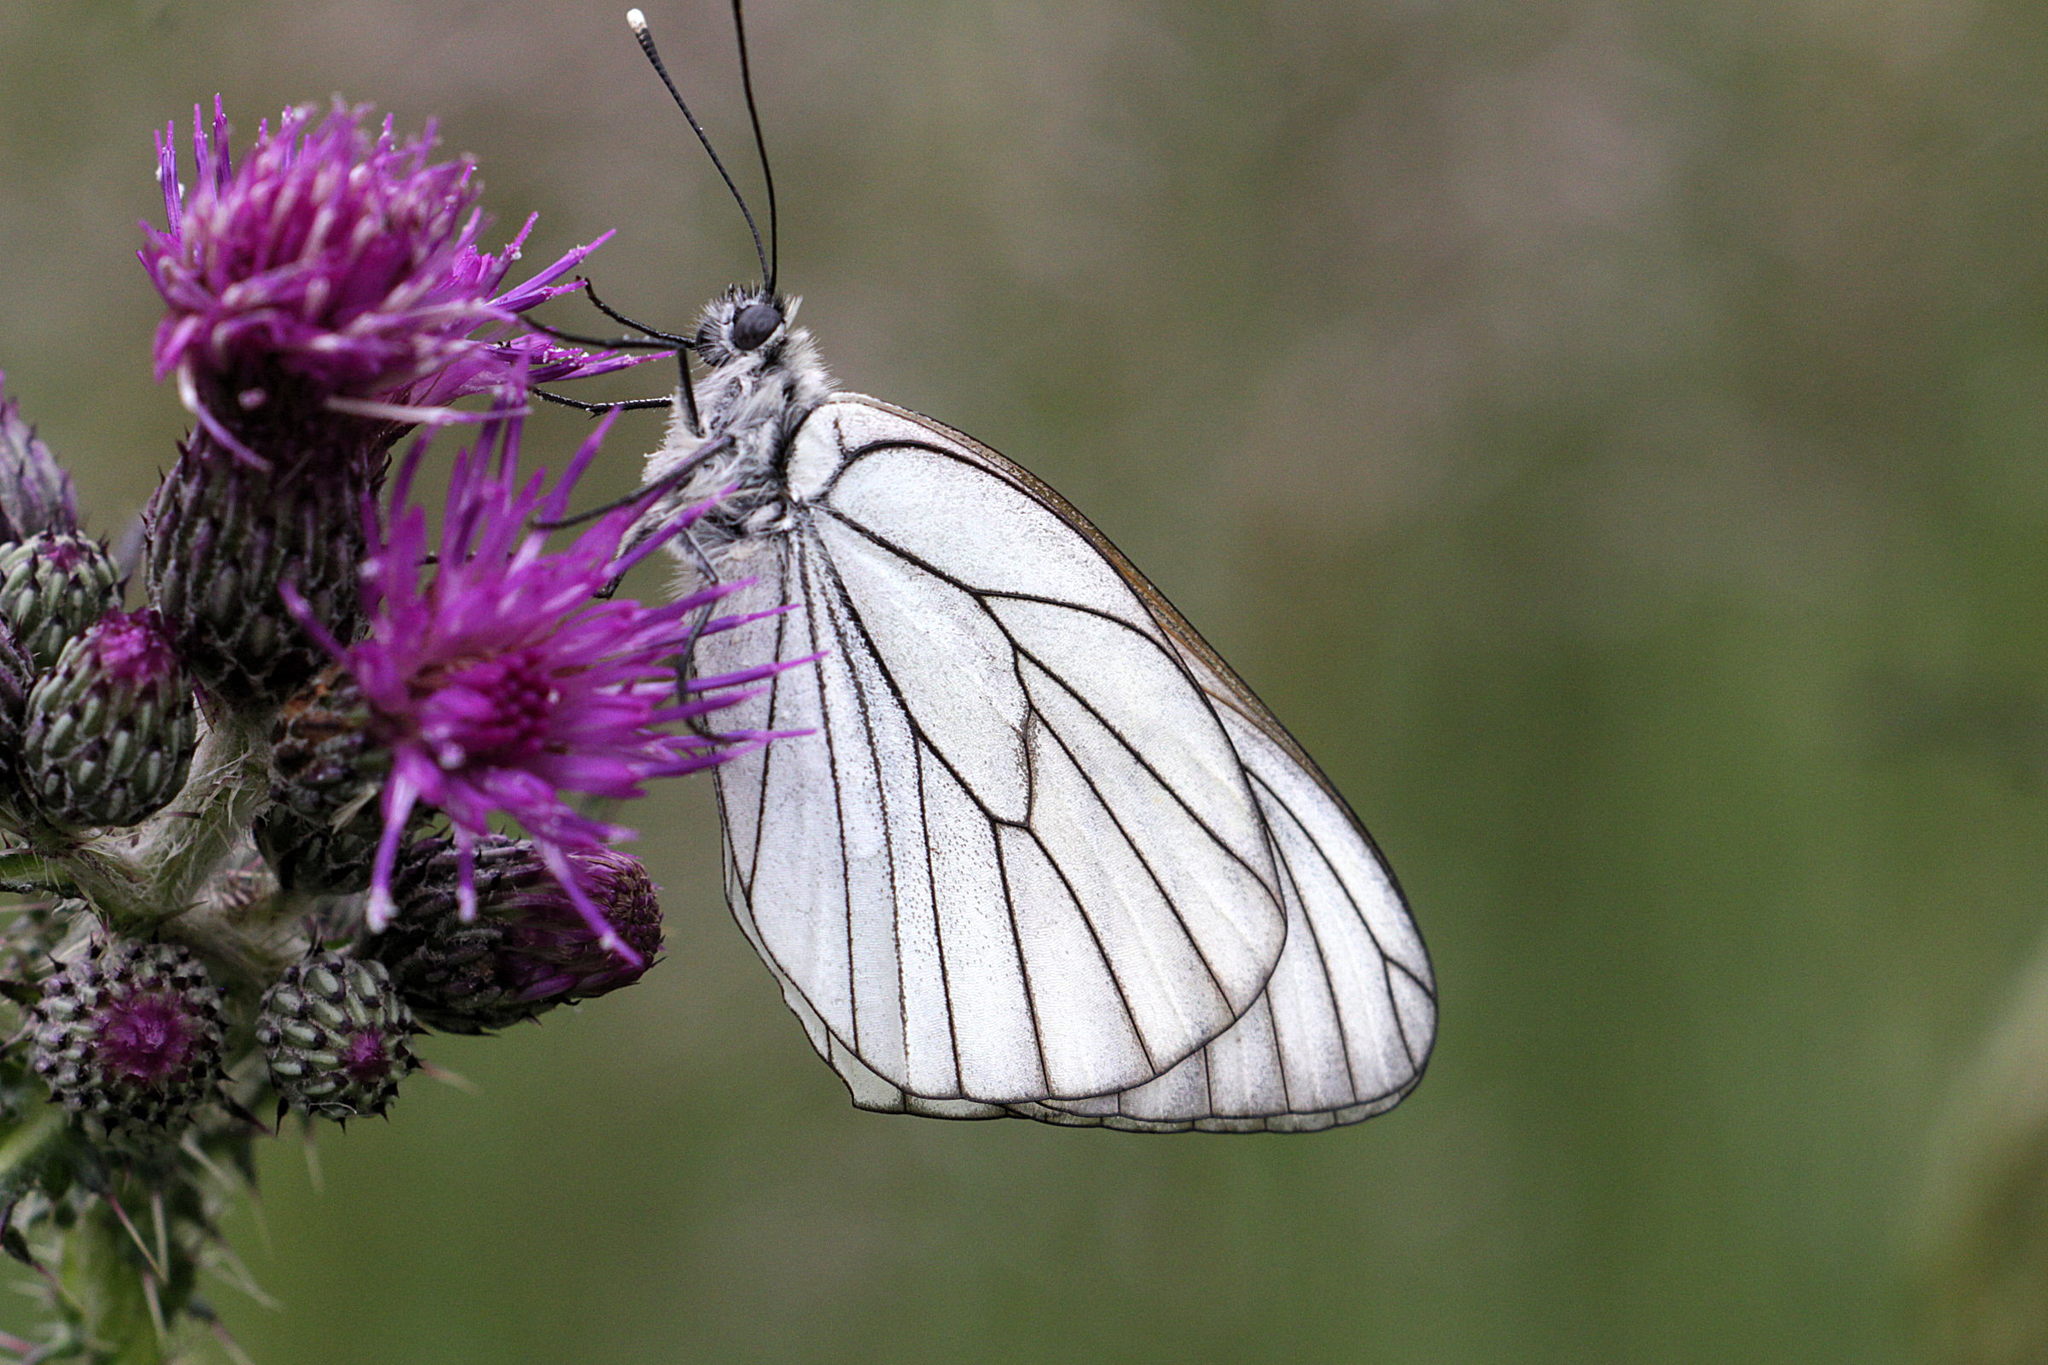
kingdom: Animalia
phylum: Arthropoda
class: Insecta
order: Lepidoptera
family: Pieridae
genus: Aporia
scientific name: Aporia crataegi
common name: Black-veined white
